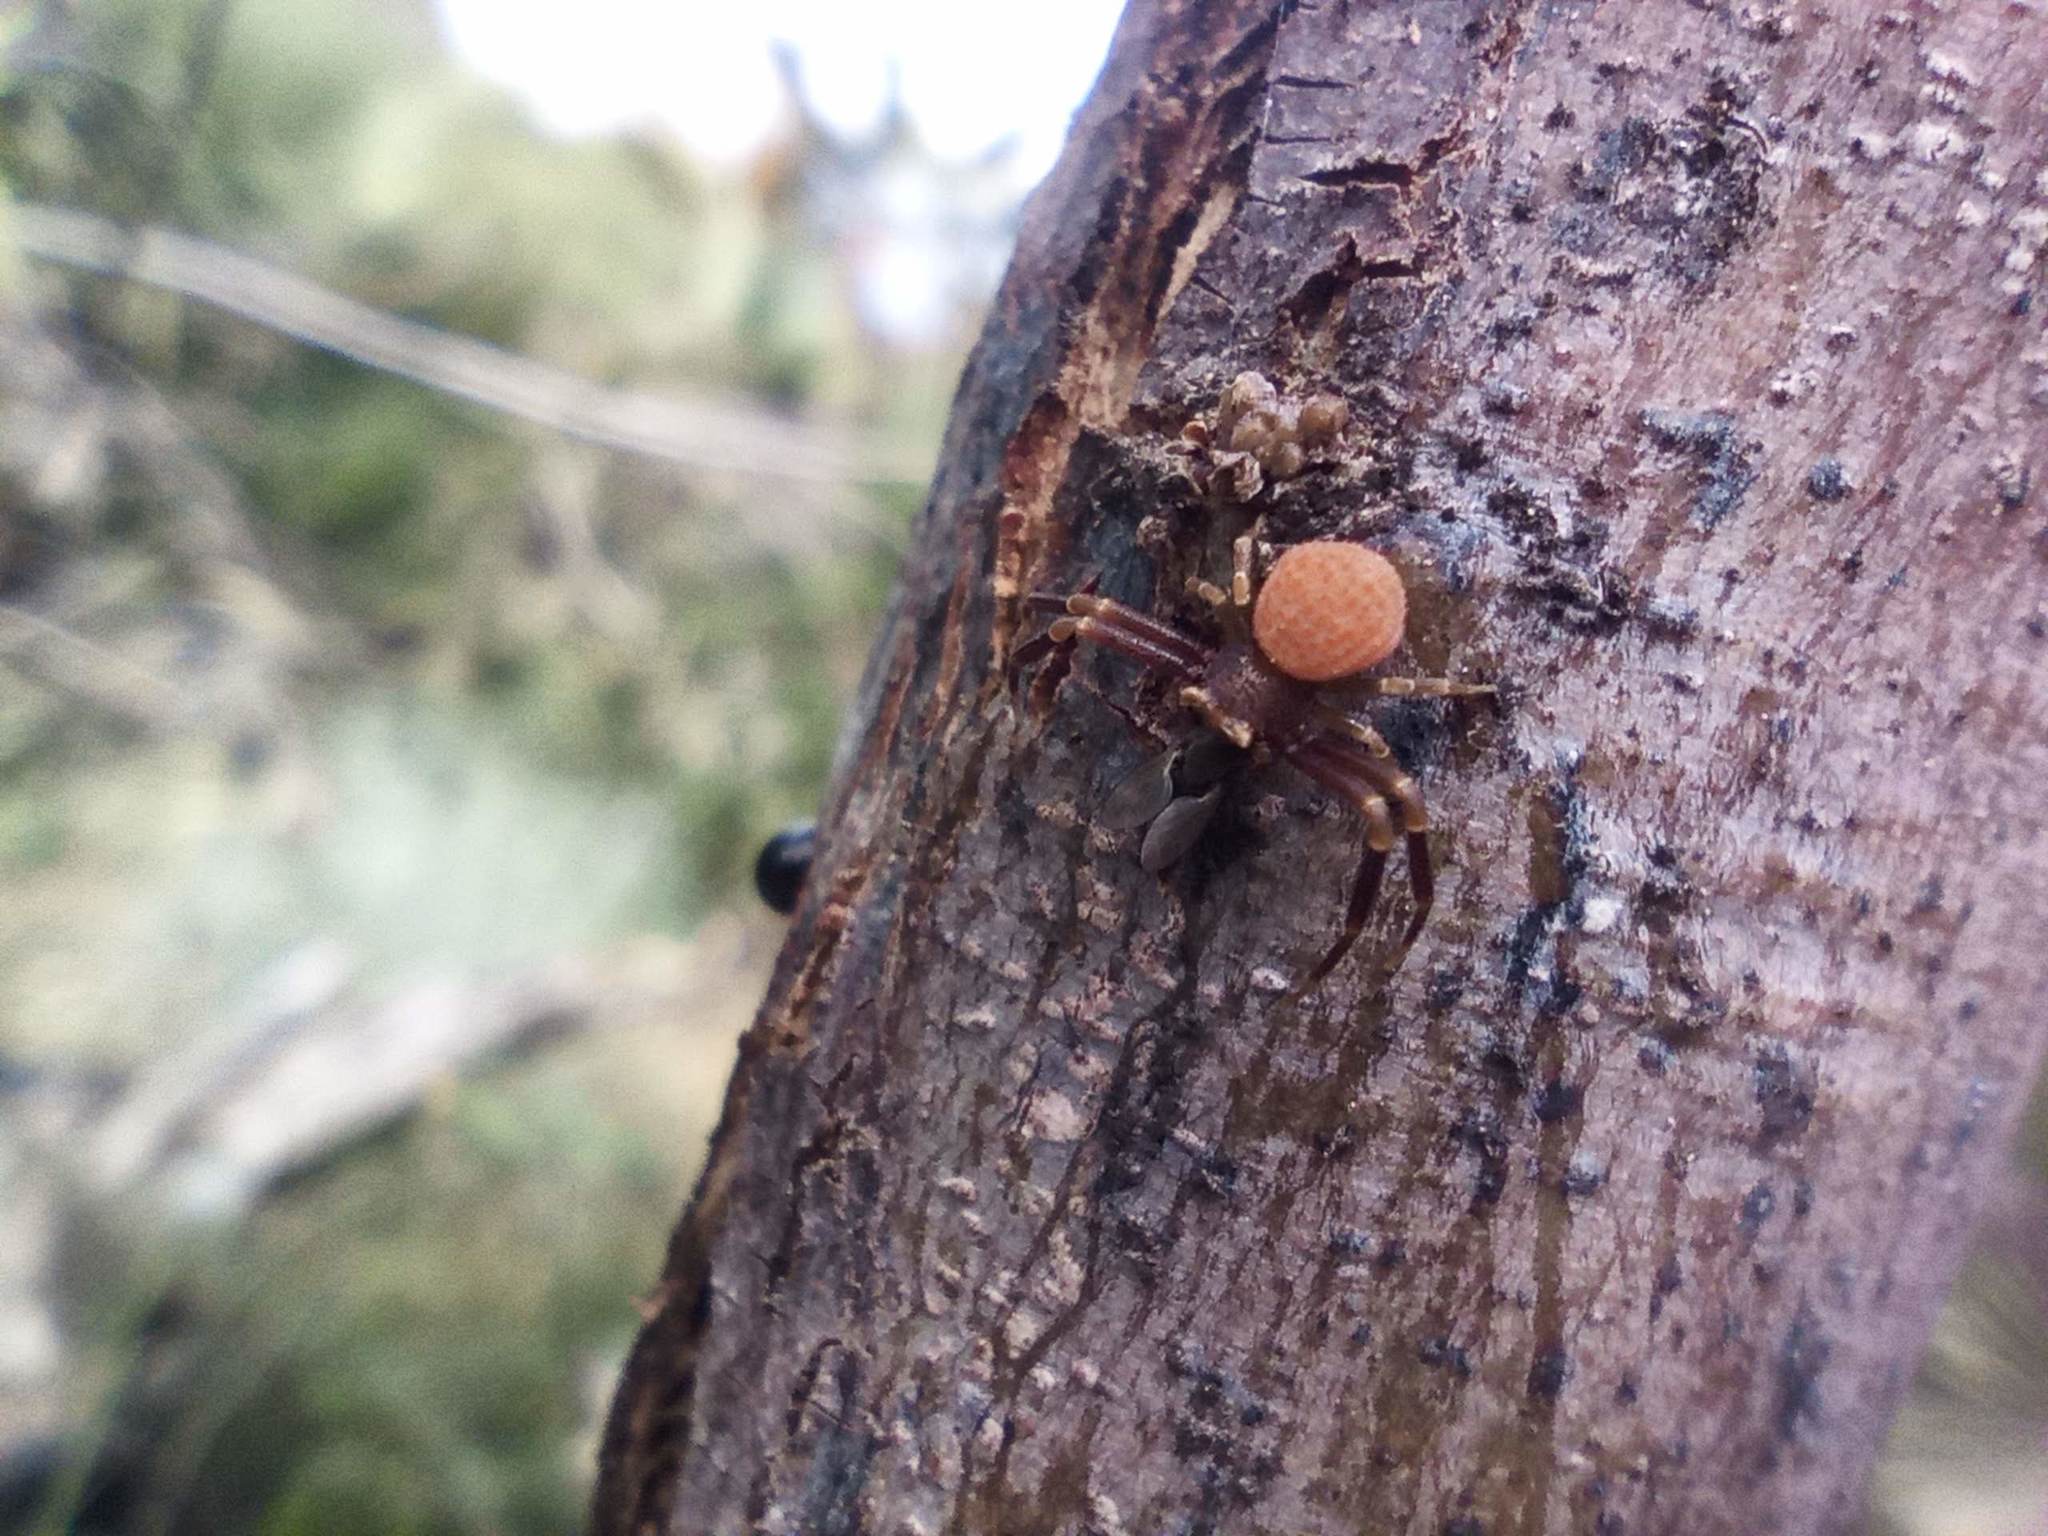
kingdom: Animalia
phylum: Arthropoda
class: Arachnida
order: Araneae
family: Thomisidae
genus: Thomisus
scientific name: Thomisus onustus
